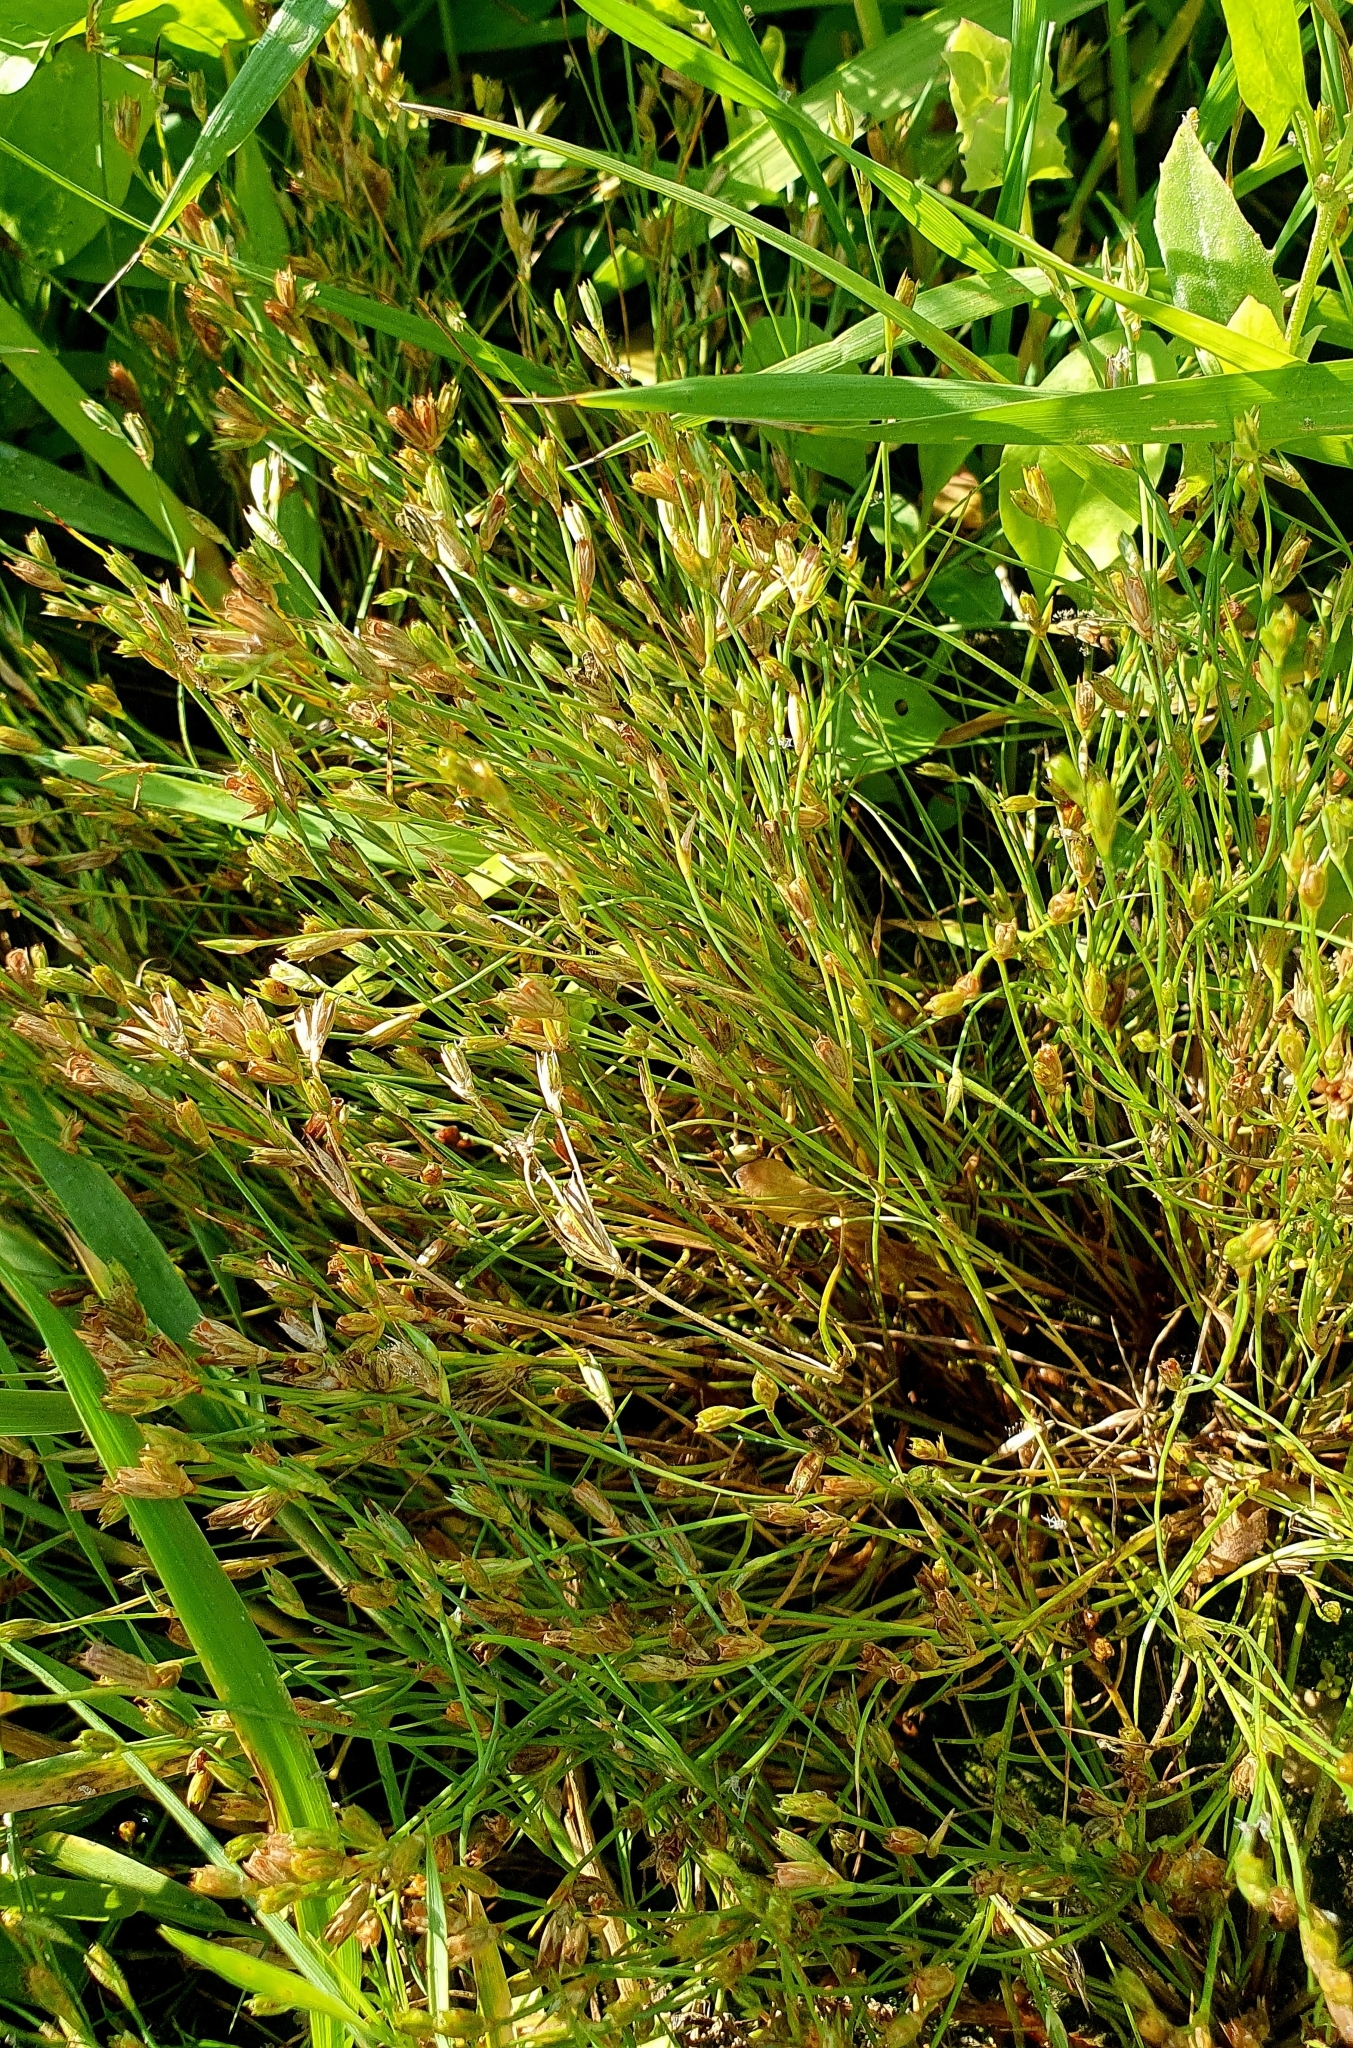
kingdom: Plantae
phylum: Tracheophyta
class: Liliopsida
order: Poales
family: Juncaceae
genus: Juncus
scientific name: Juncus bufonius
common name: Toad rush
